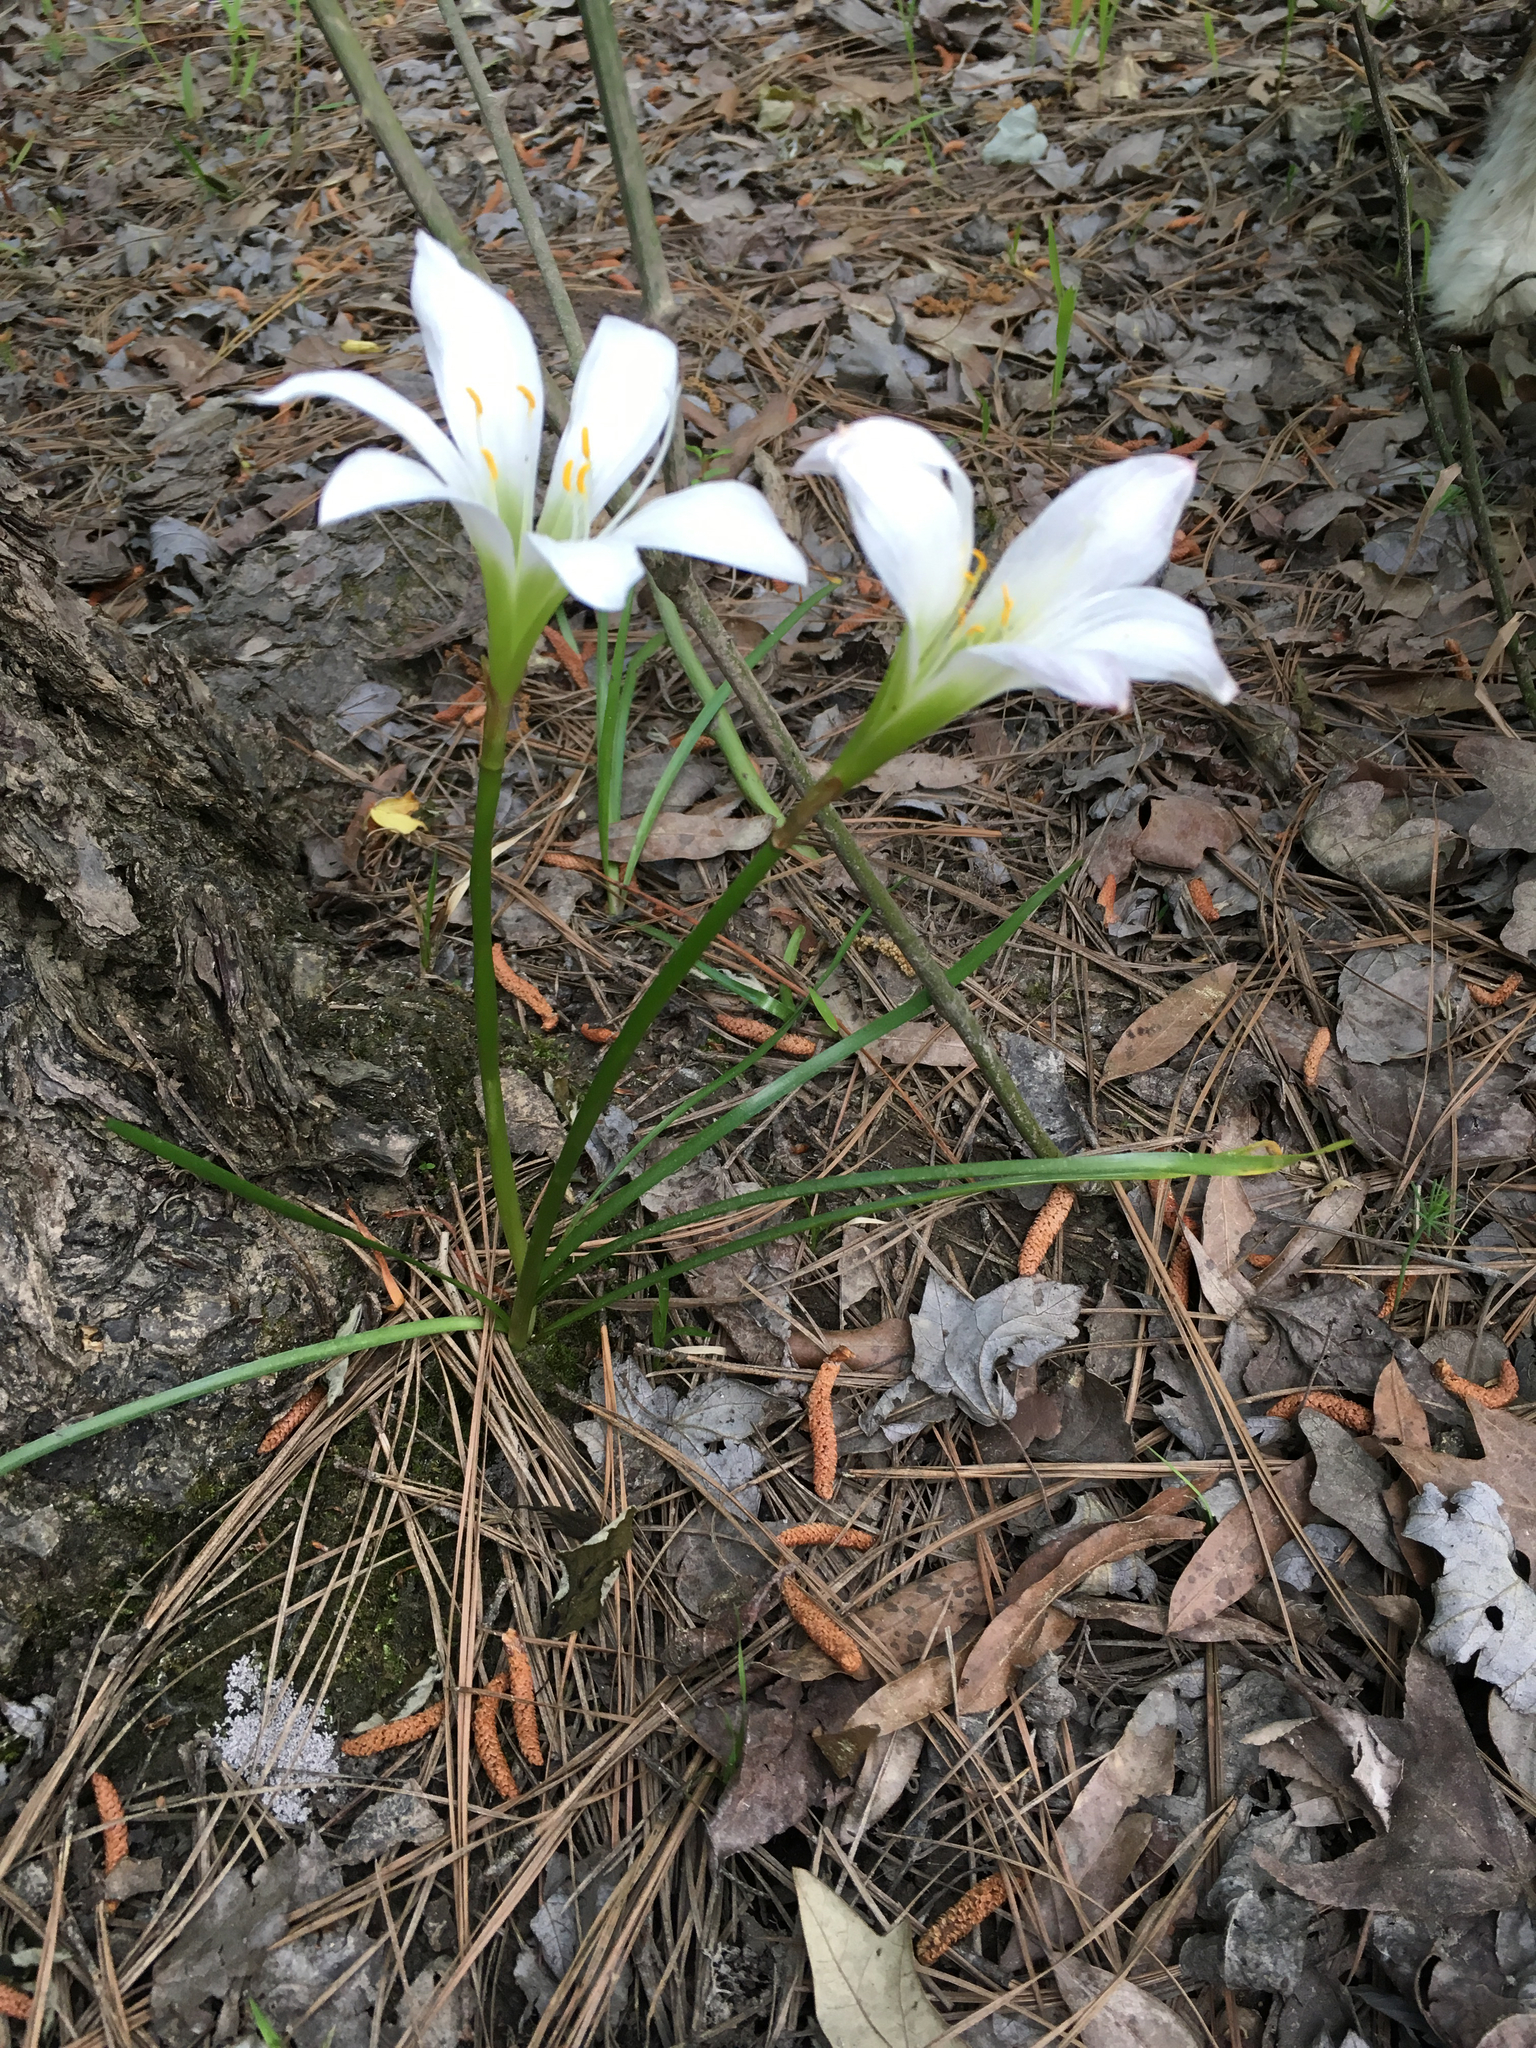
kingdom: Plantae
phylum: Tracheophyta
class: Liliopsida
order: Asparagales
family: Amaryllidaceae
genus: Zephyranthes
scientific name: Zephyranthes atamasco
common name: Atamasco lily
